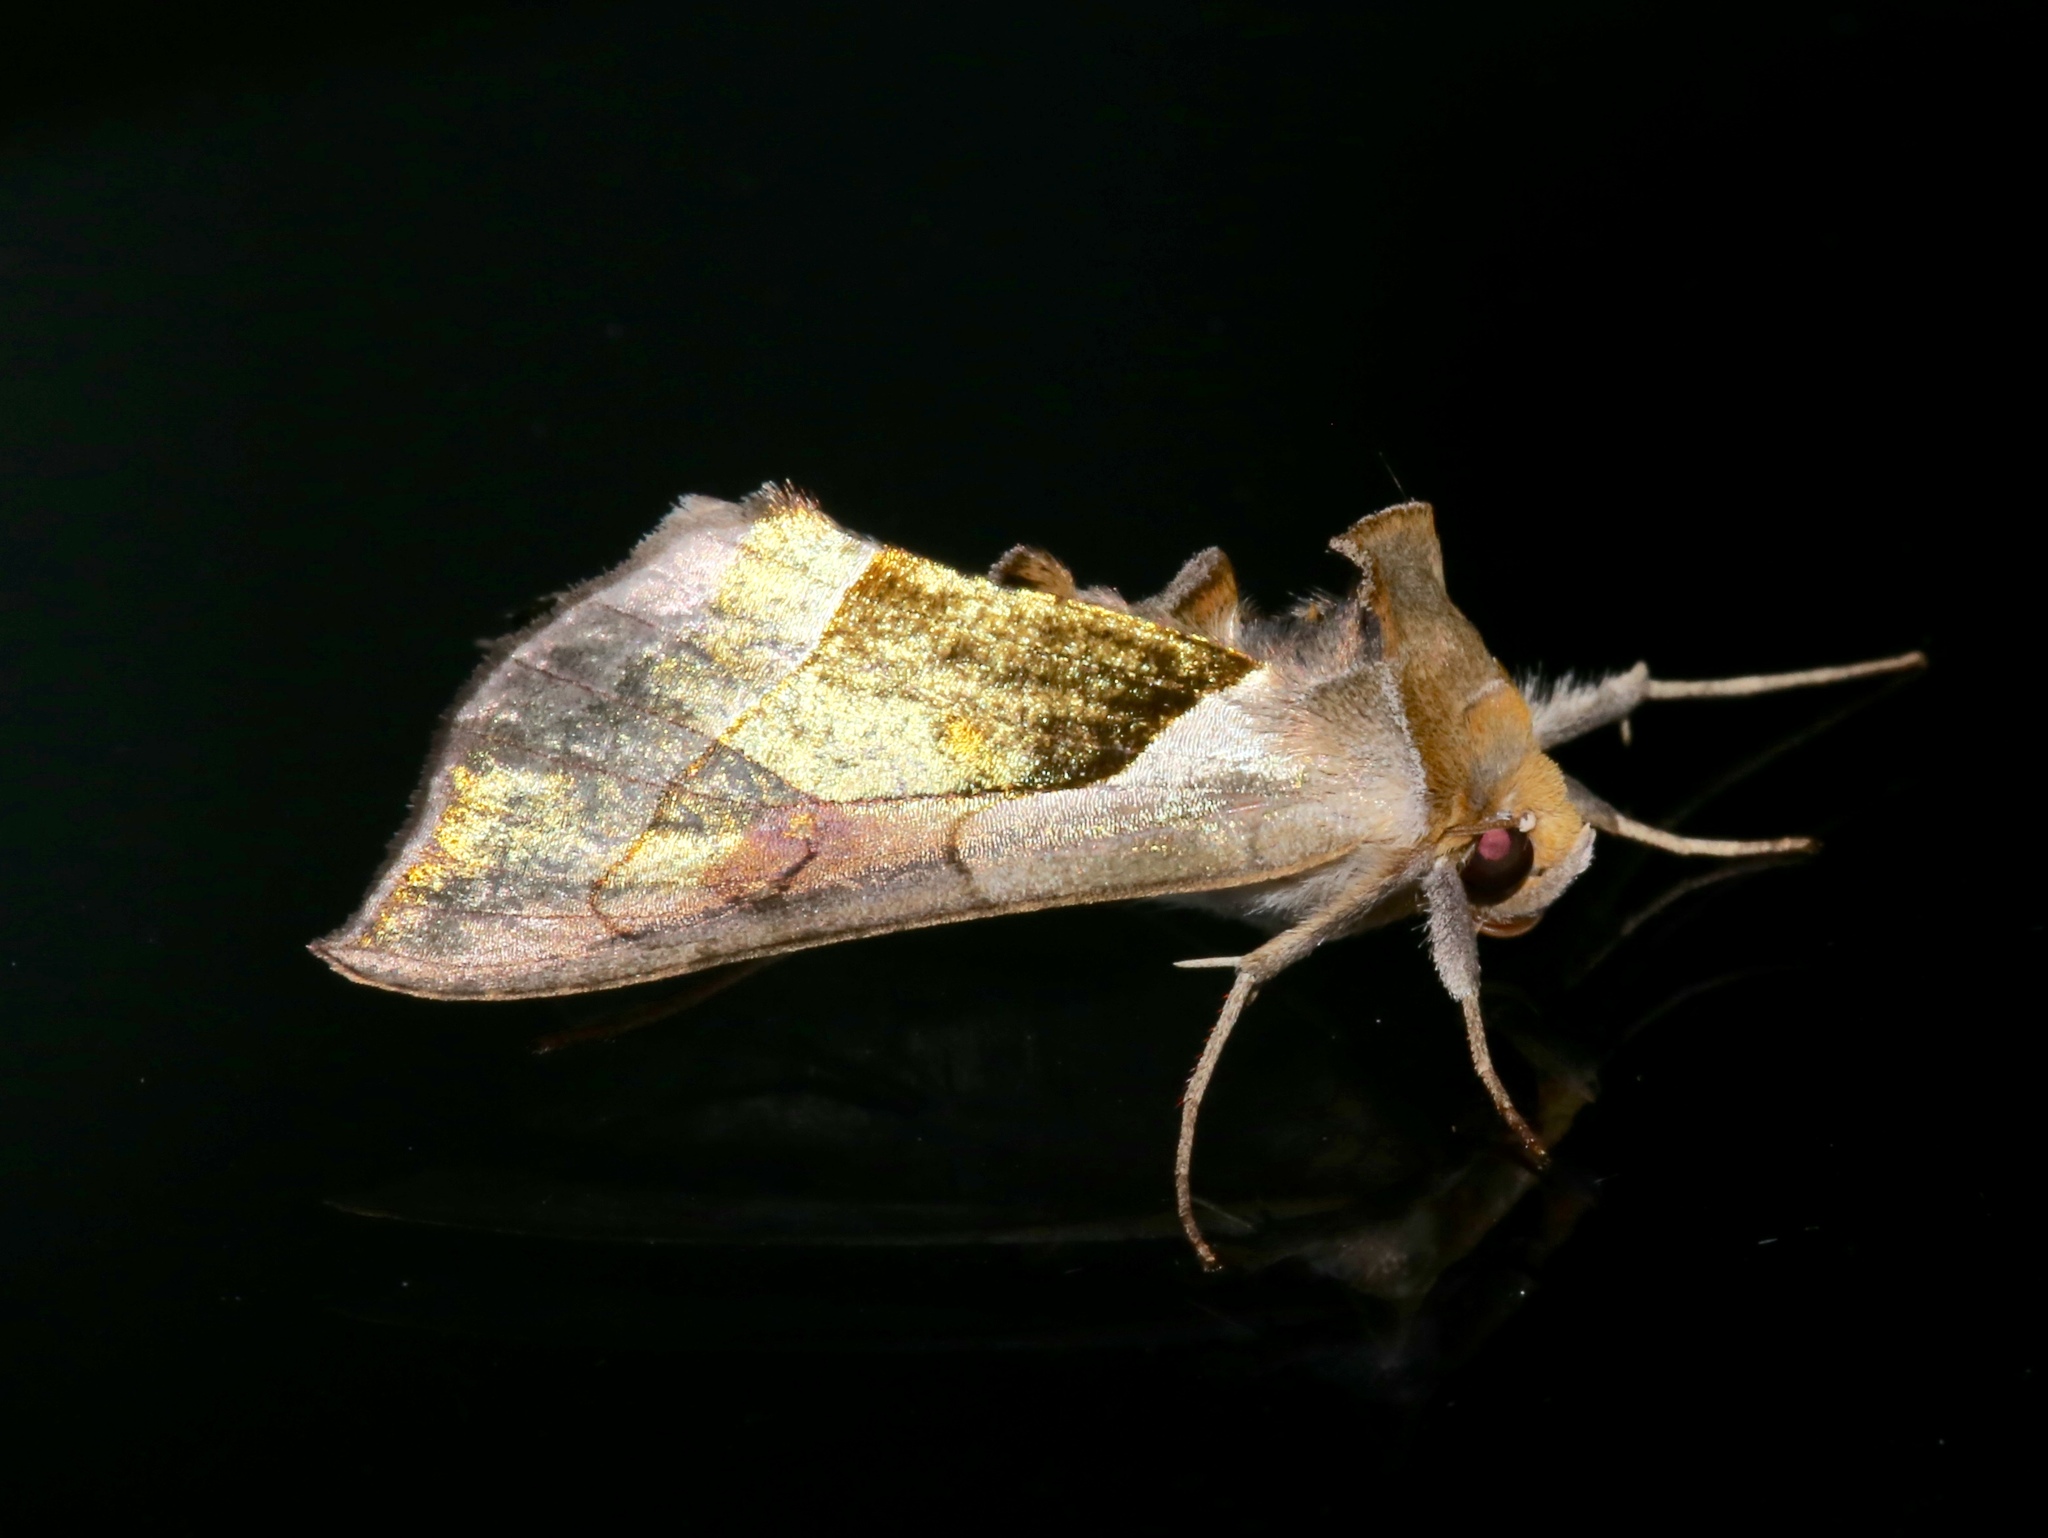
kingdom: Animalia
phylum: Arthropoda
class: Insecta
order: Lepidoptera
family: Noctuidae
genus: Diachrysia
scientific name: Diachrysia balluca
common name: Green-patched looper moth
